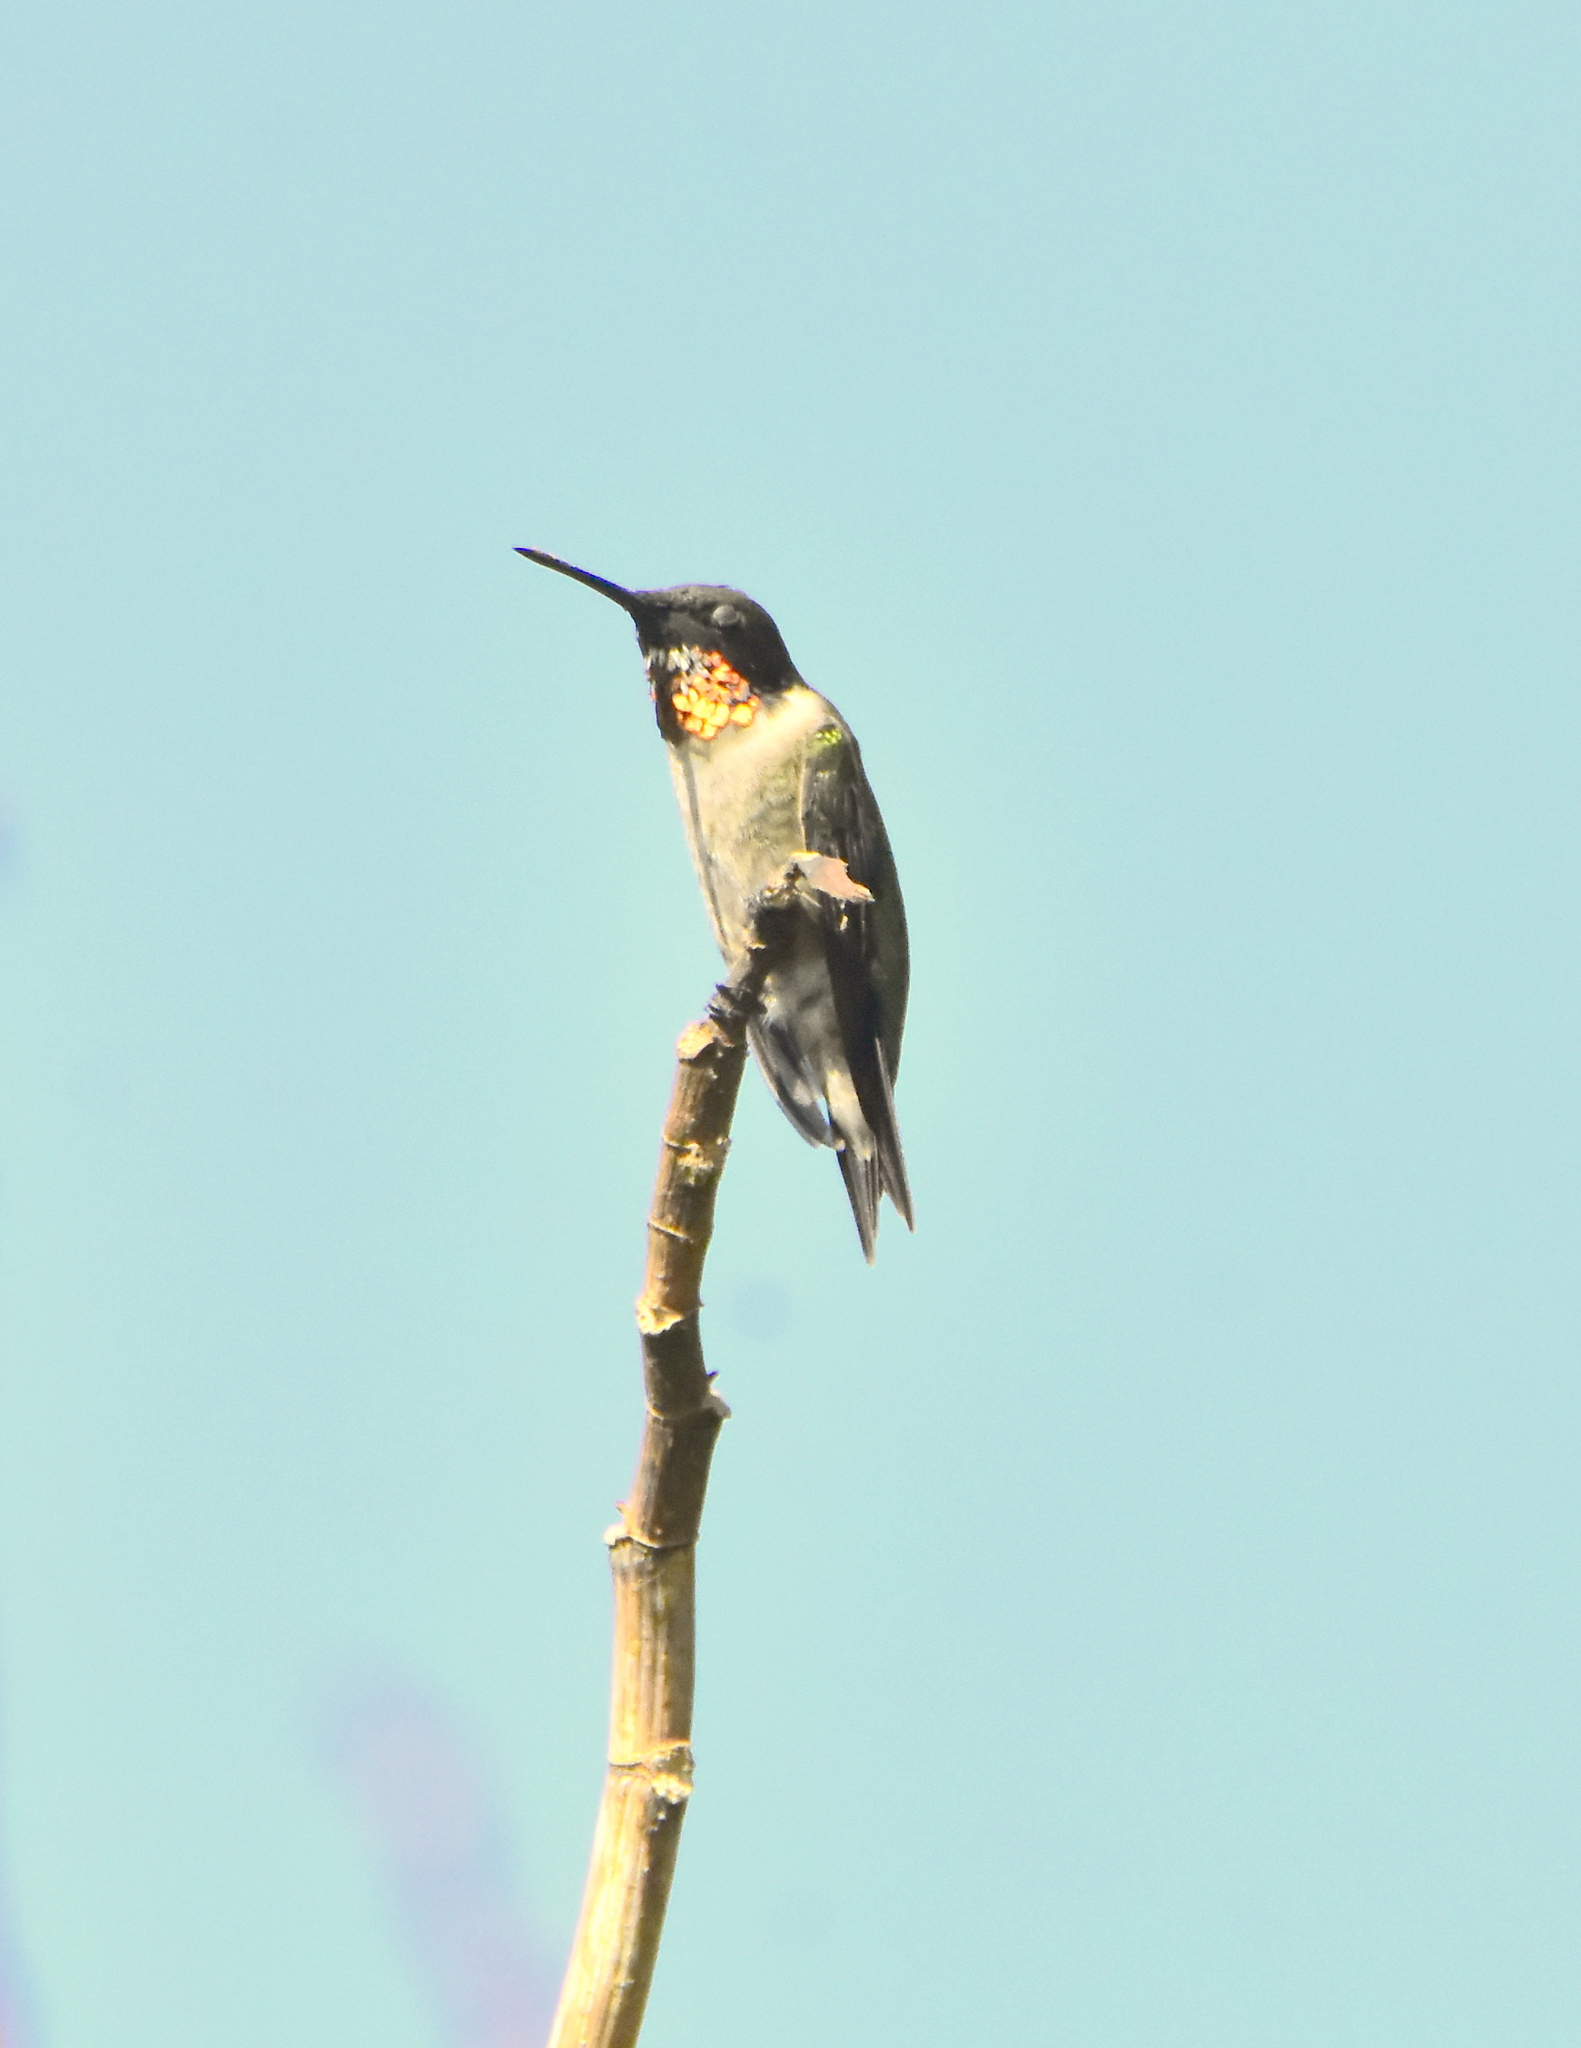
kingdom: Animalia
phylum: Chordata
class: Aves
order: Apodiformes
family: Trochilidae
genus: Archilochus
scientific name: Archilochus colubris
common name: Ruby-throated hummingbird
